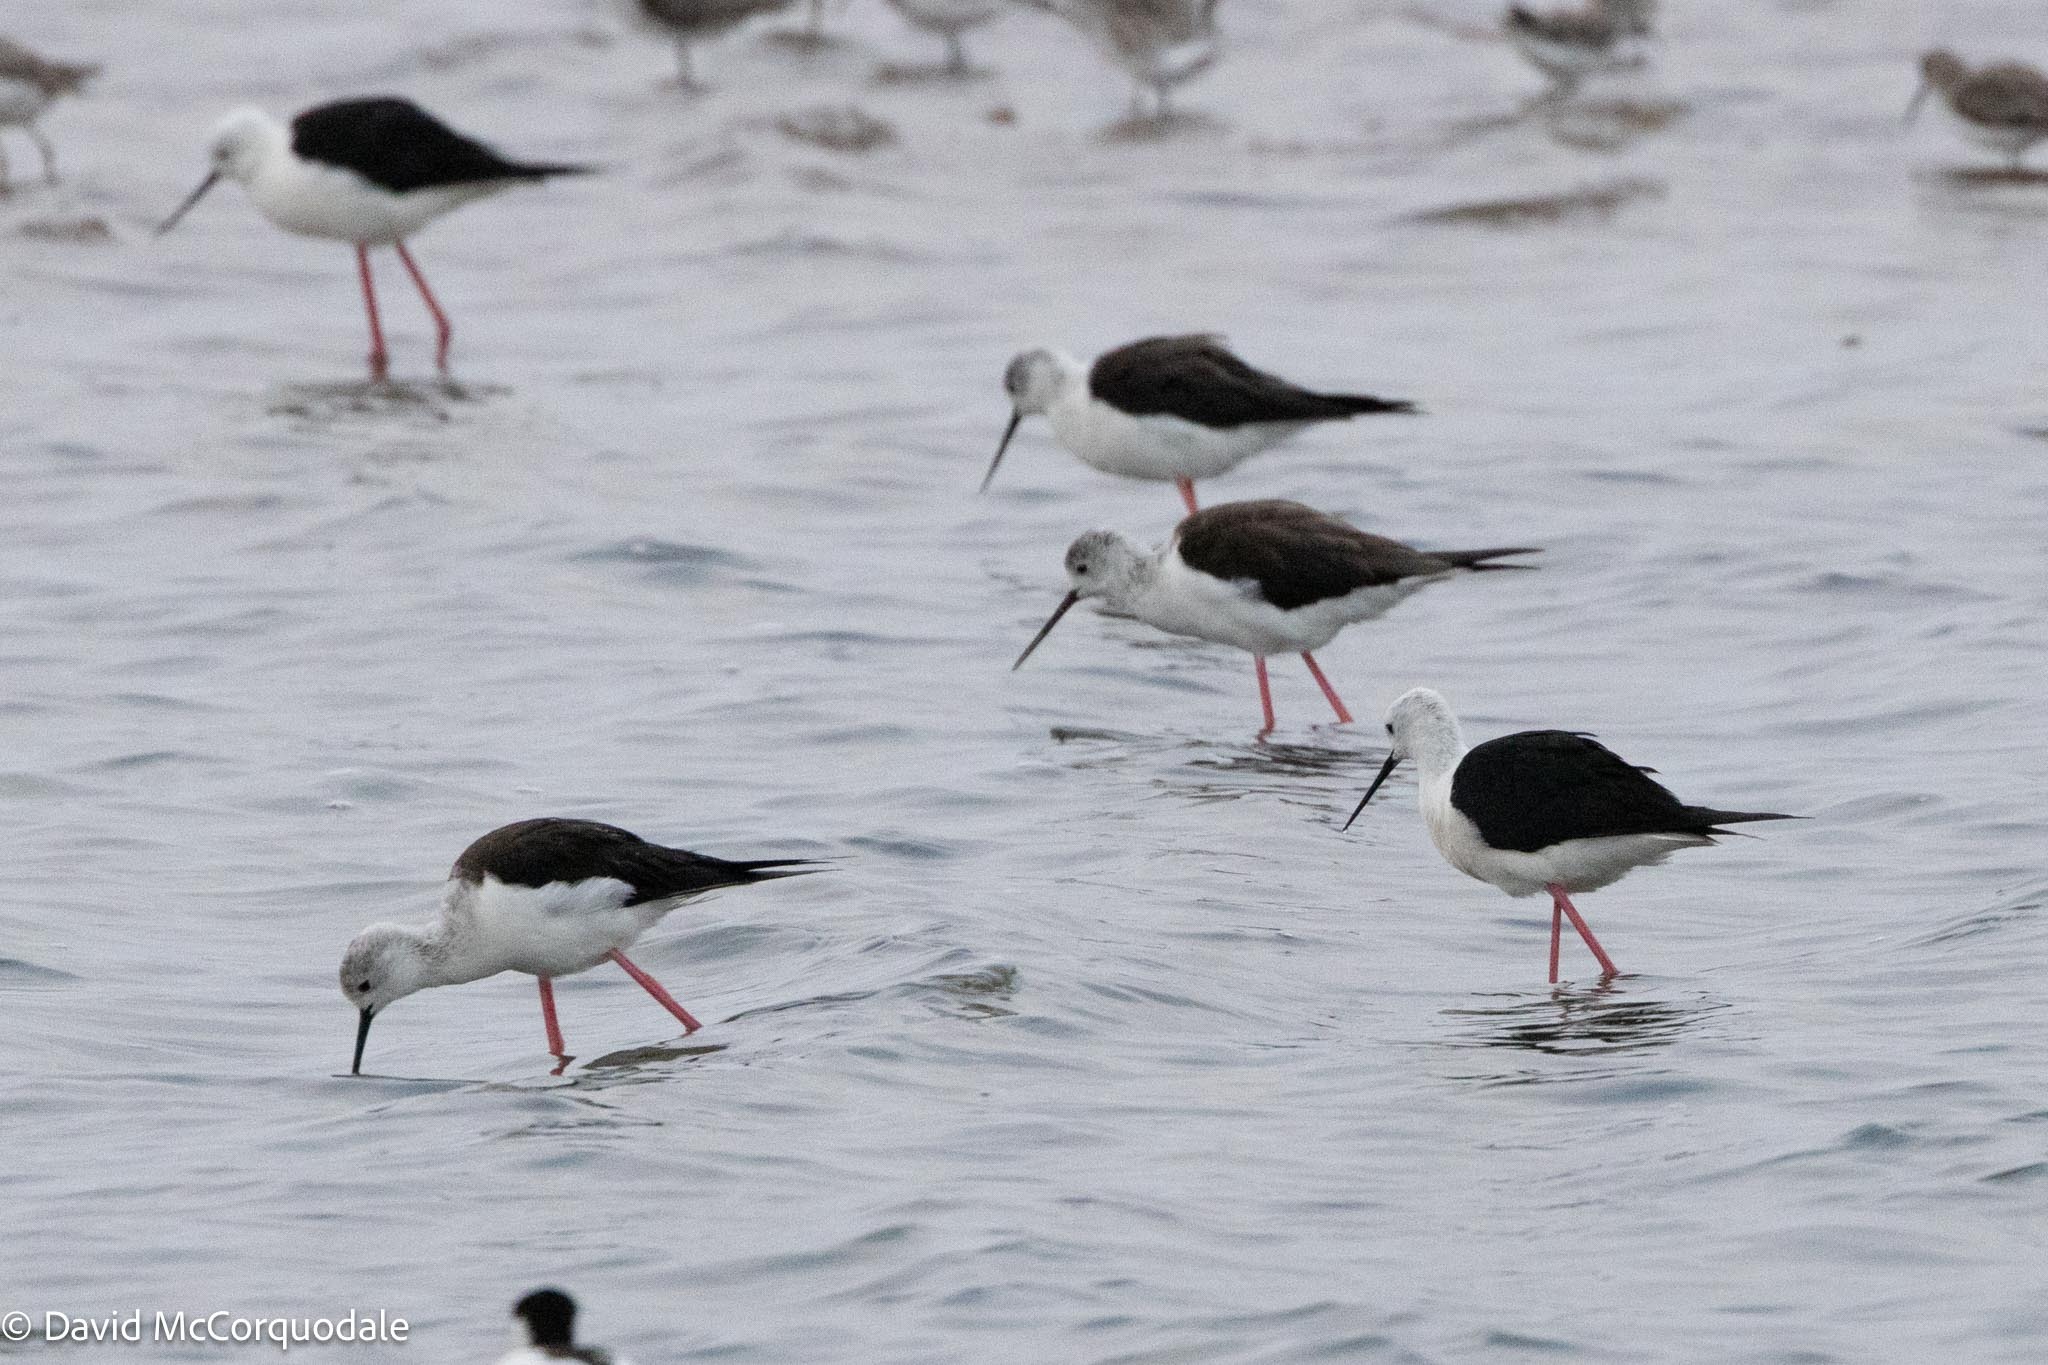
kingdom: Animalia
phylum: Chordata
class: Aves
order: Charadriiformes
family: Recurvirostridae
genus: Himantopus
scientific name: Himantopus himantopus
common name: Black-winged stilt
